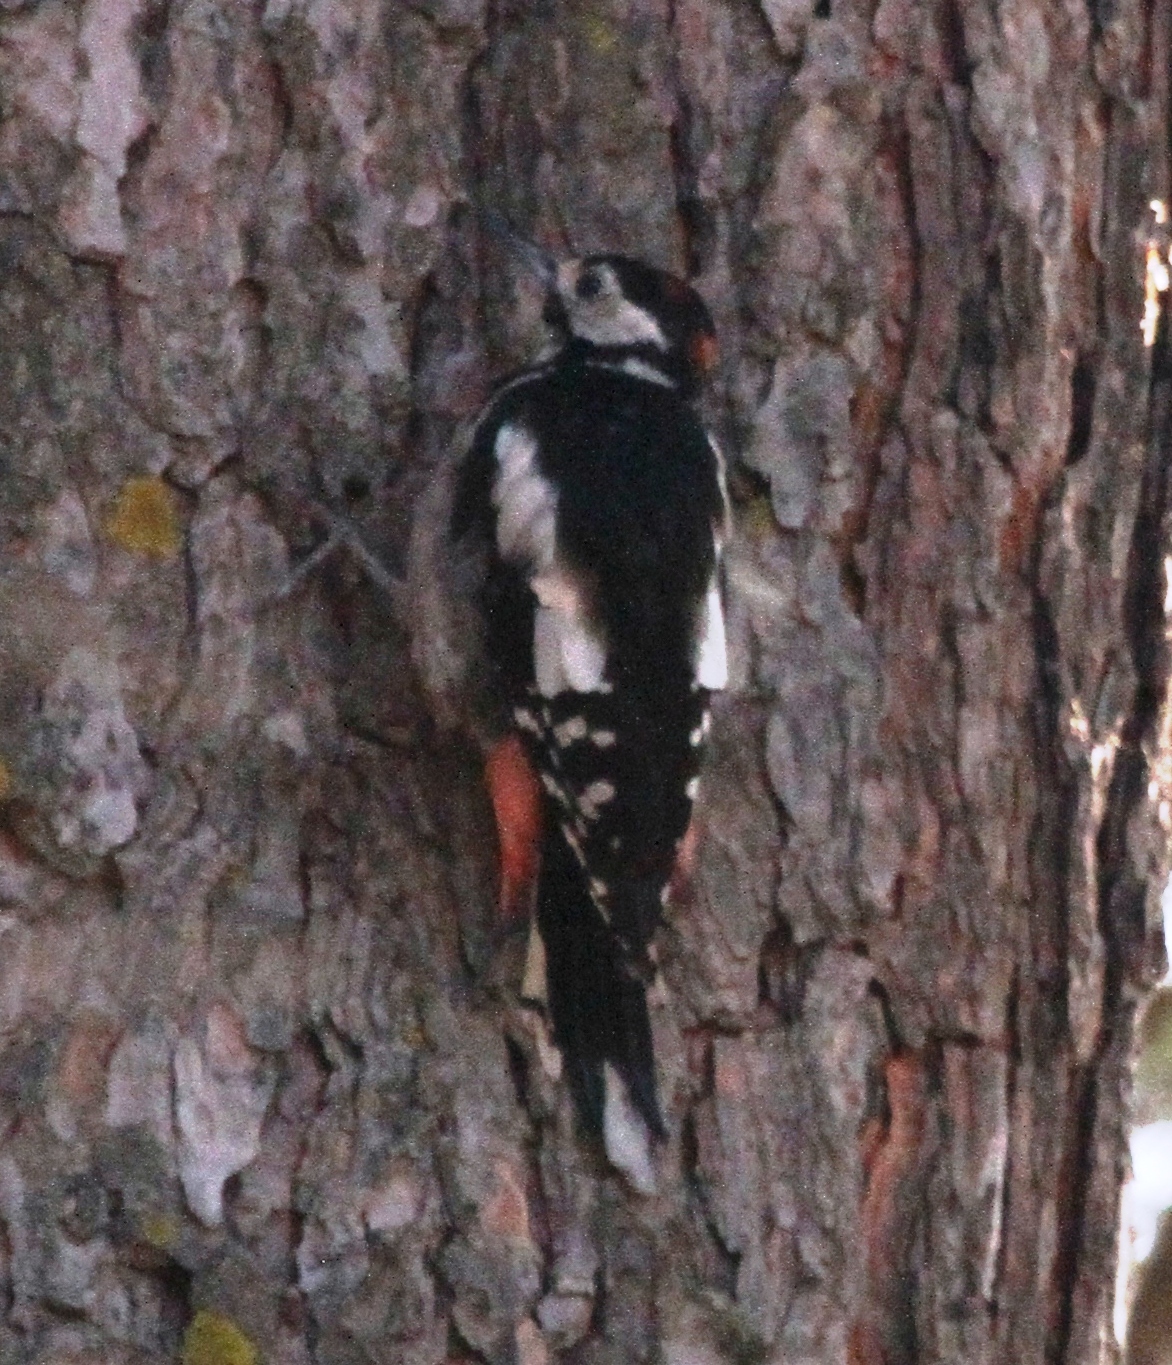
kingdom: Animalia
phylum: Chordata
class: Aves
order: Piciformes
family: Picidae
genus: Dendrocopos
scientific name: Dendrocopos major
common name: Great spotted woodpecker
